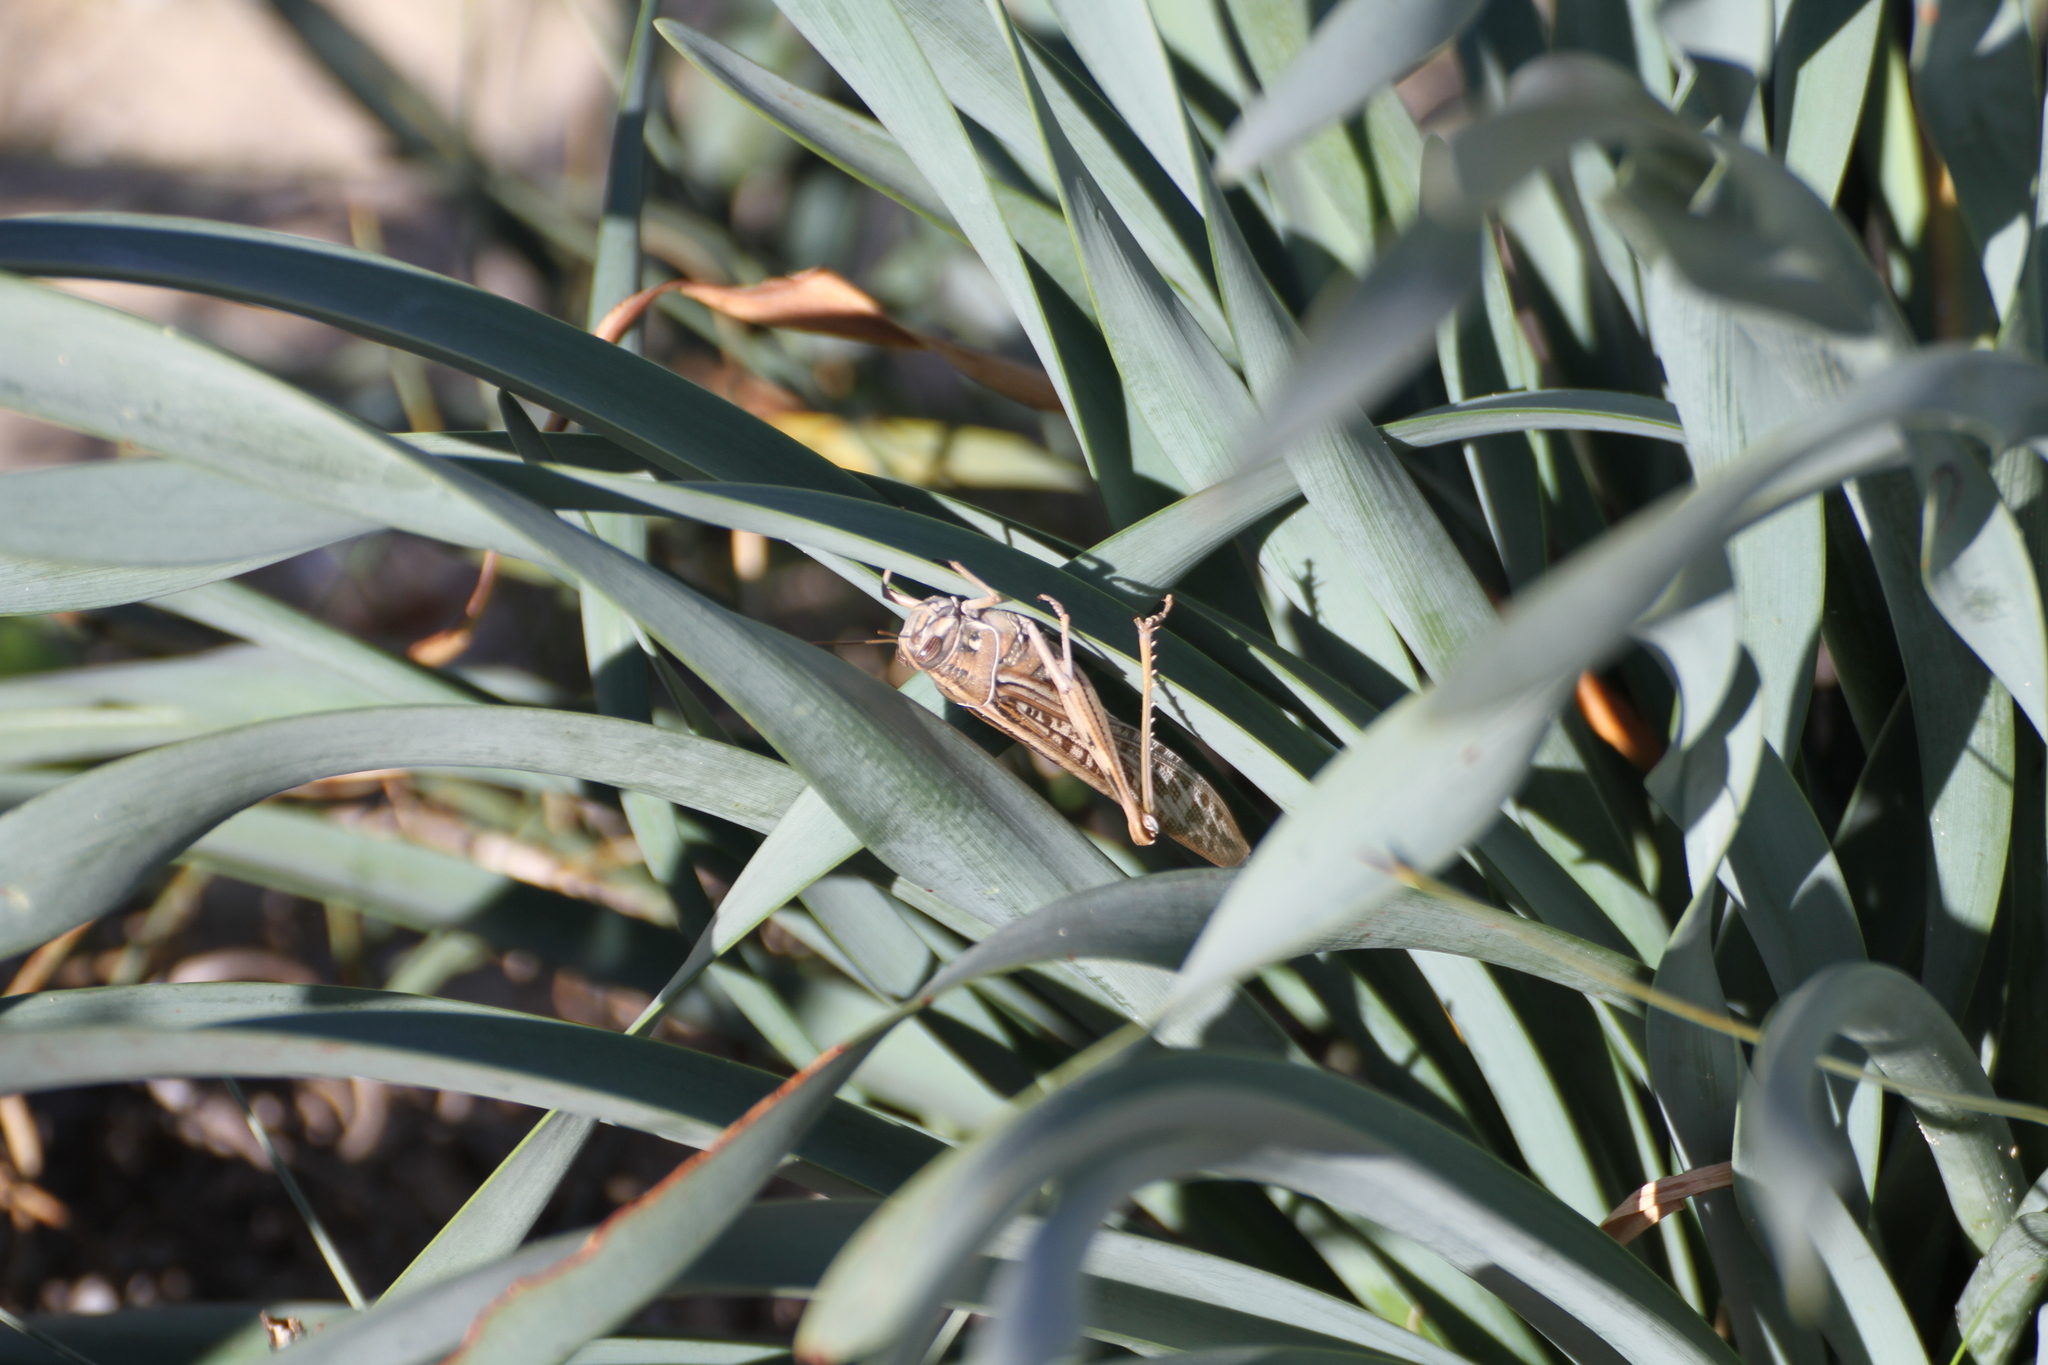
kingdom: Animalia
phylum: Arthropoda
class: Insecta
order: Orthoptera
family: Acrididae
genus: Schistocerca
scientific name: Schistocerca gregaria
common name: Desert locust
